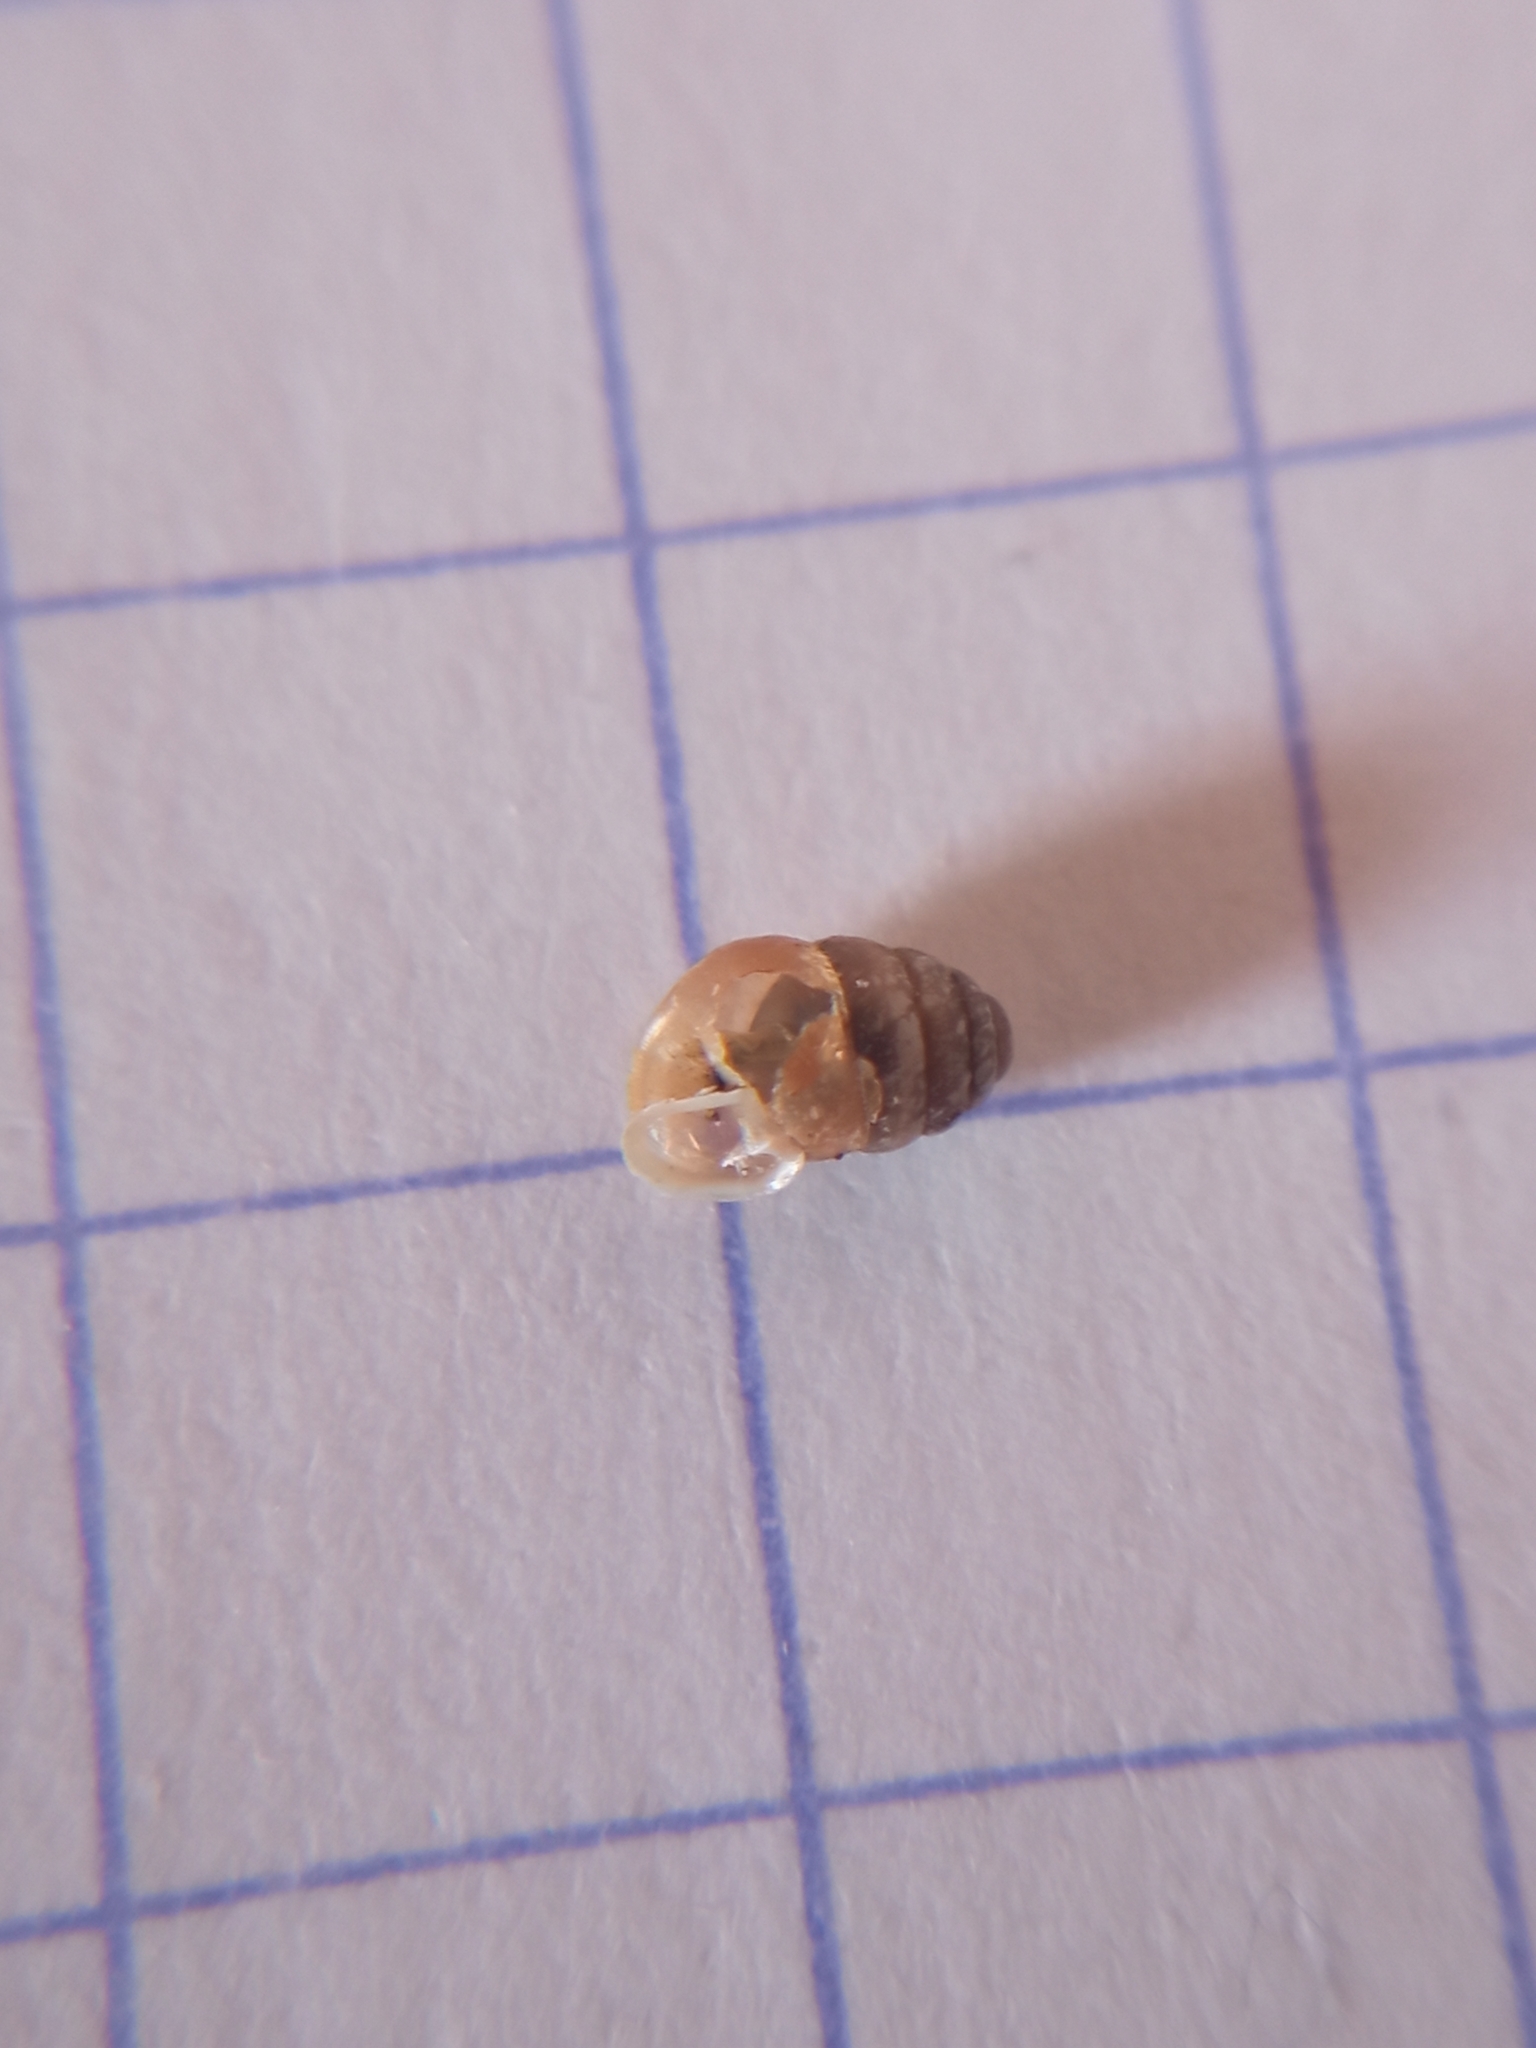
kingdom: Animalia
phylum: Mollusca
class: Gastropoda
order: Stylommatophora
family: Lauriidae
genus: Lauria
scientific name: Lauria cylindracea
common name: Common chrysalis snail
